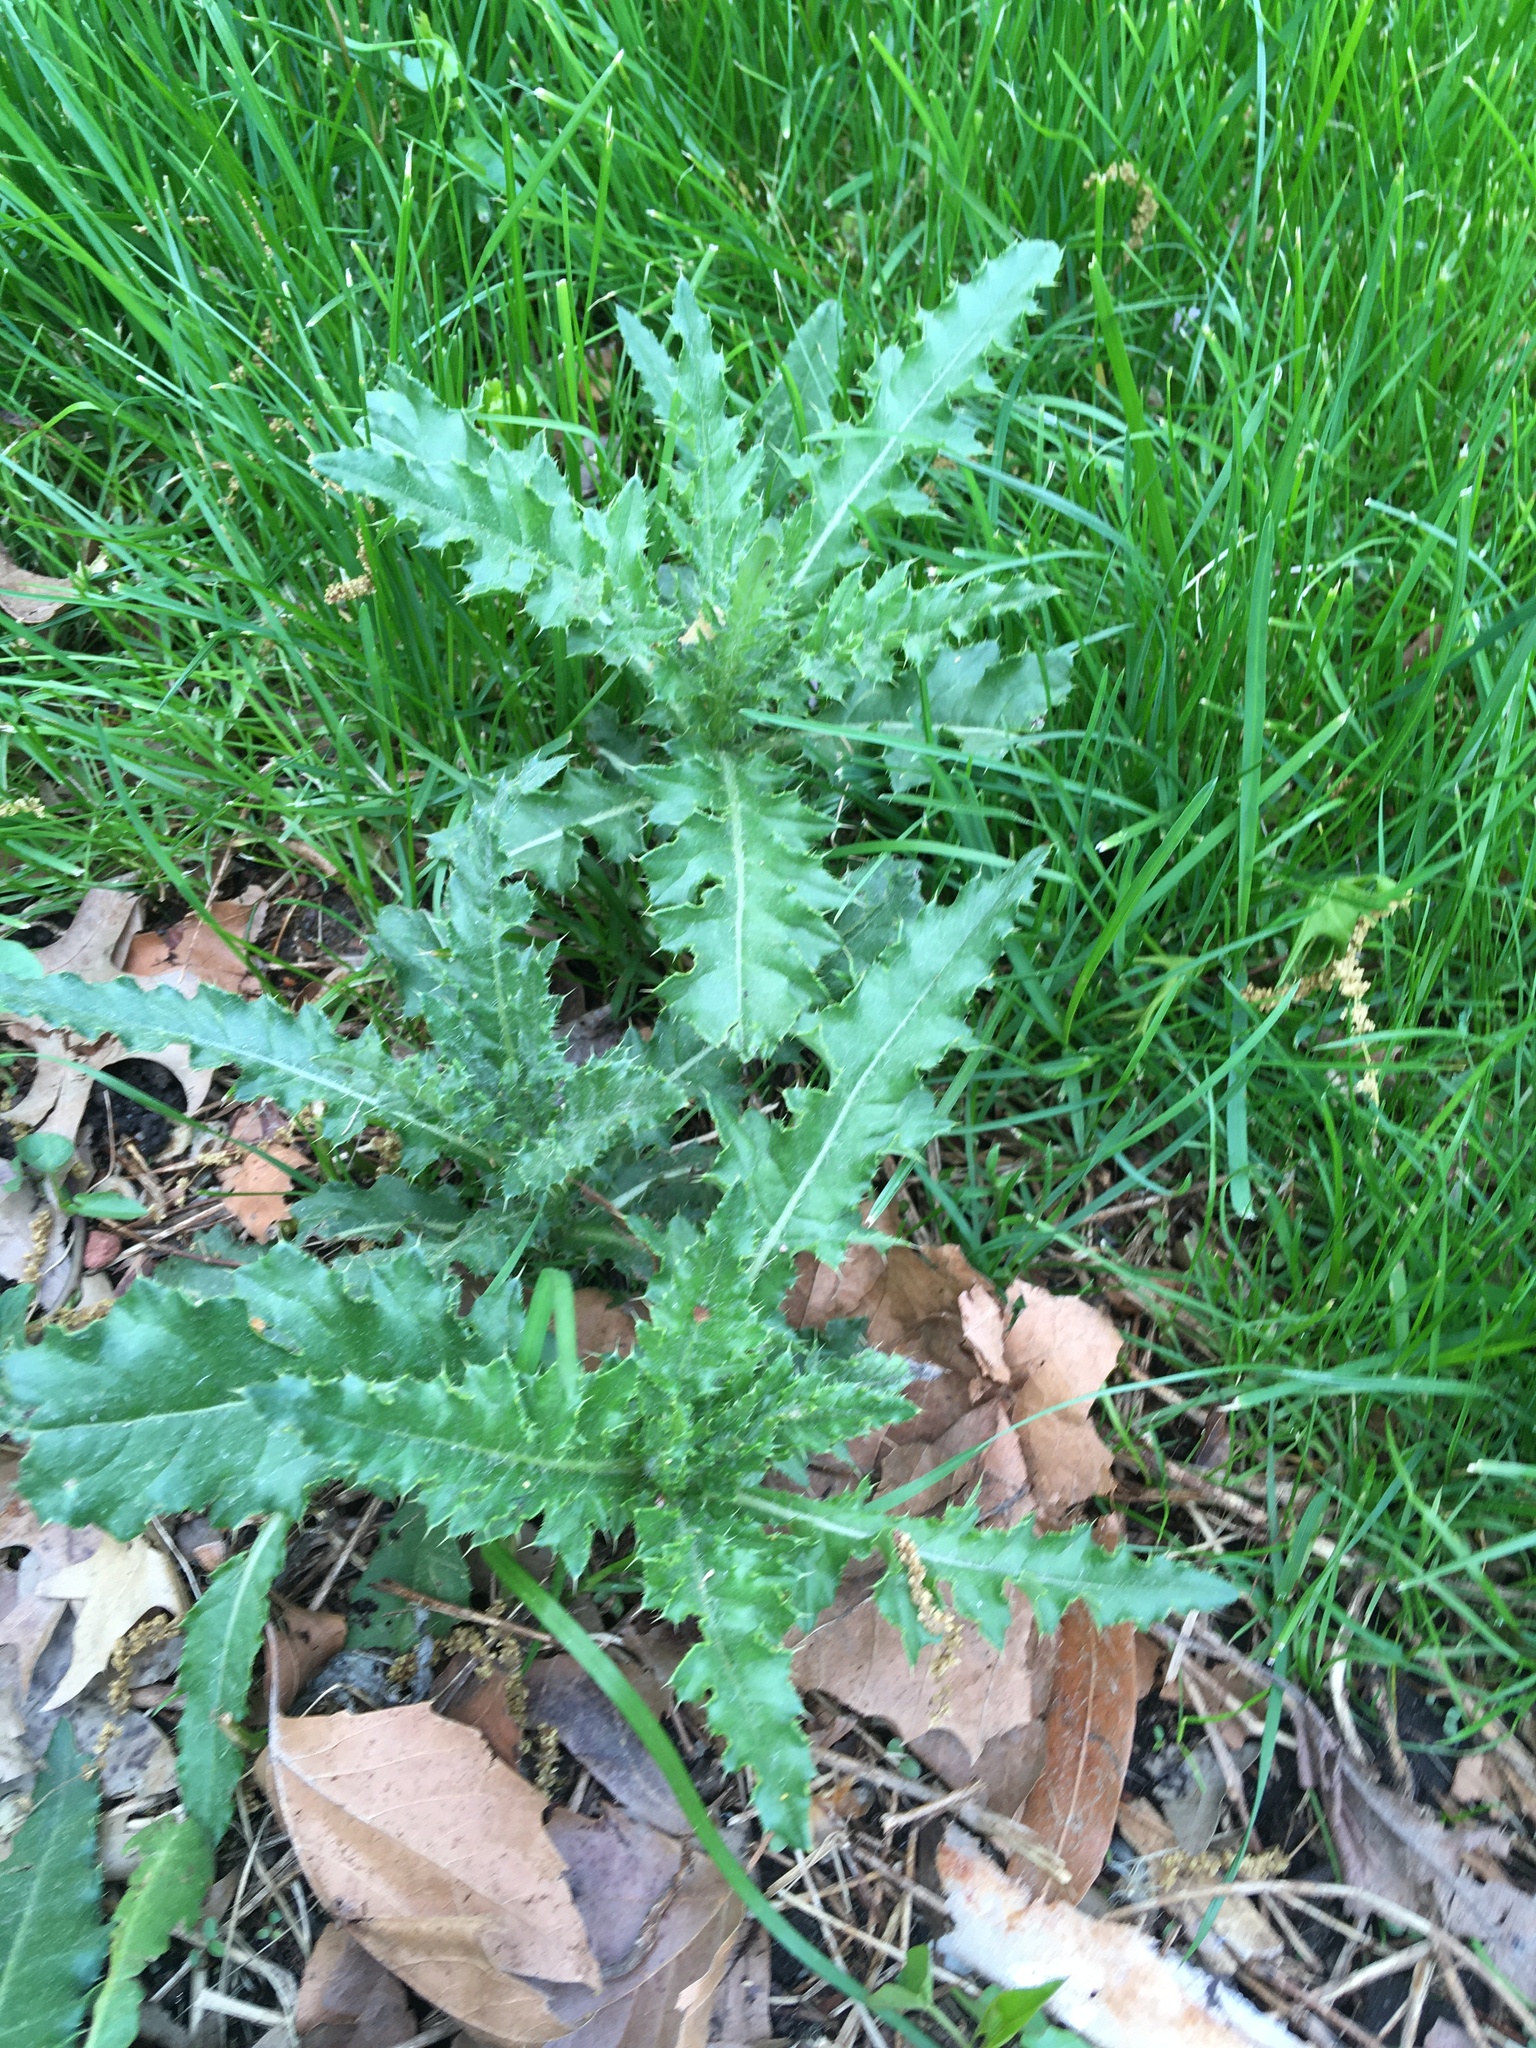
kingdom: Plantae
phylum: Tracheophyta
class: Magnoliopsida
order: Asterales
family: Asteraceae
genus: Cirsium
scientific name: Cirsium arvense
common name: Creeping thistle
